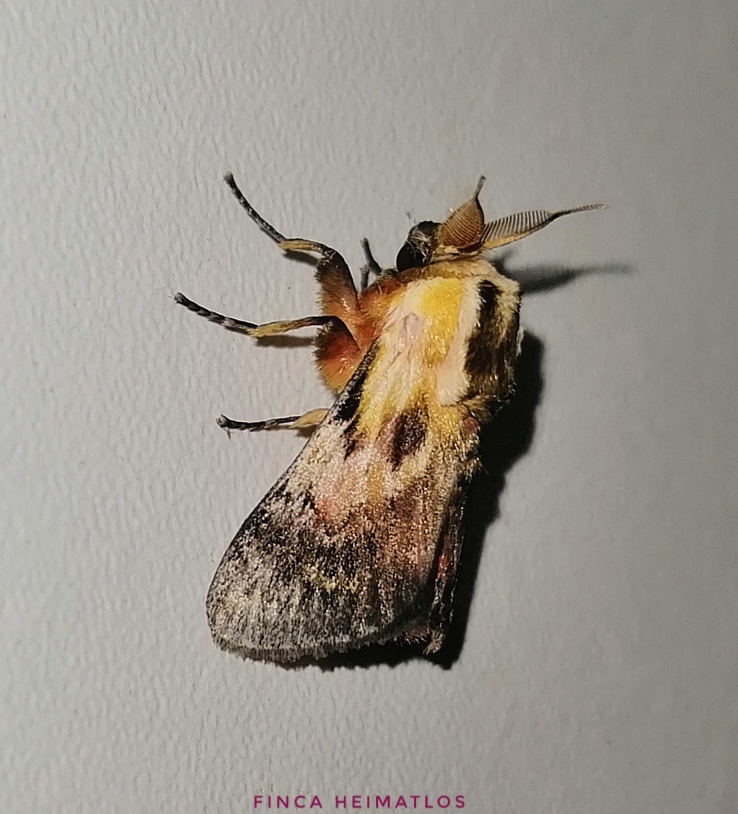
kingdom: Animalia
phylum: Arthropoda
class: Insecta
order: Lepidoptera
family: Aididae
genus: Aidos
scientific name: Aidos perfusa
